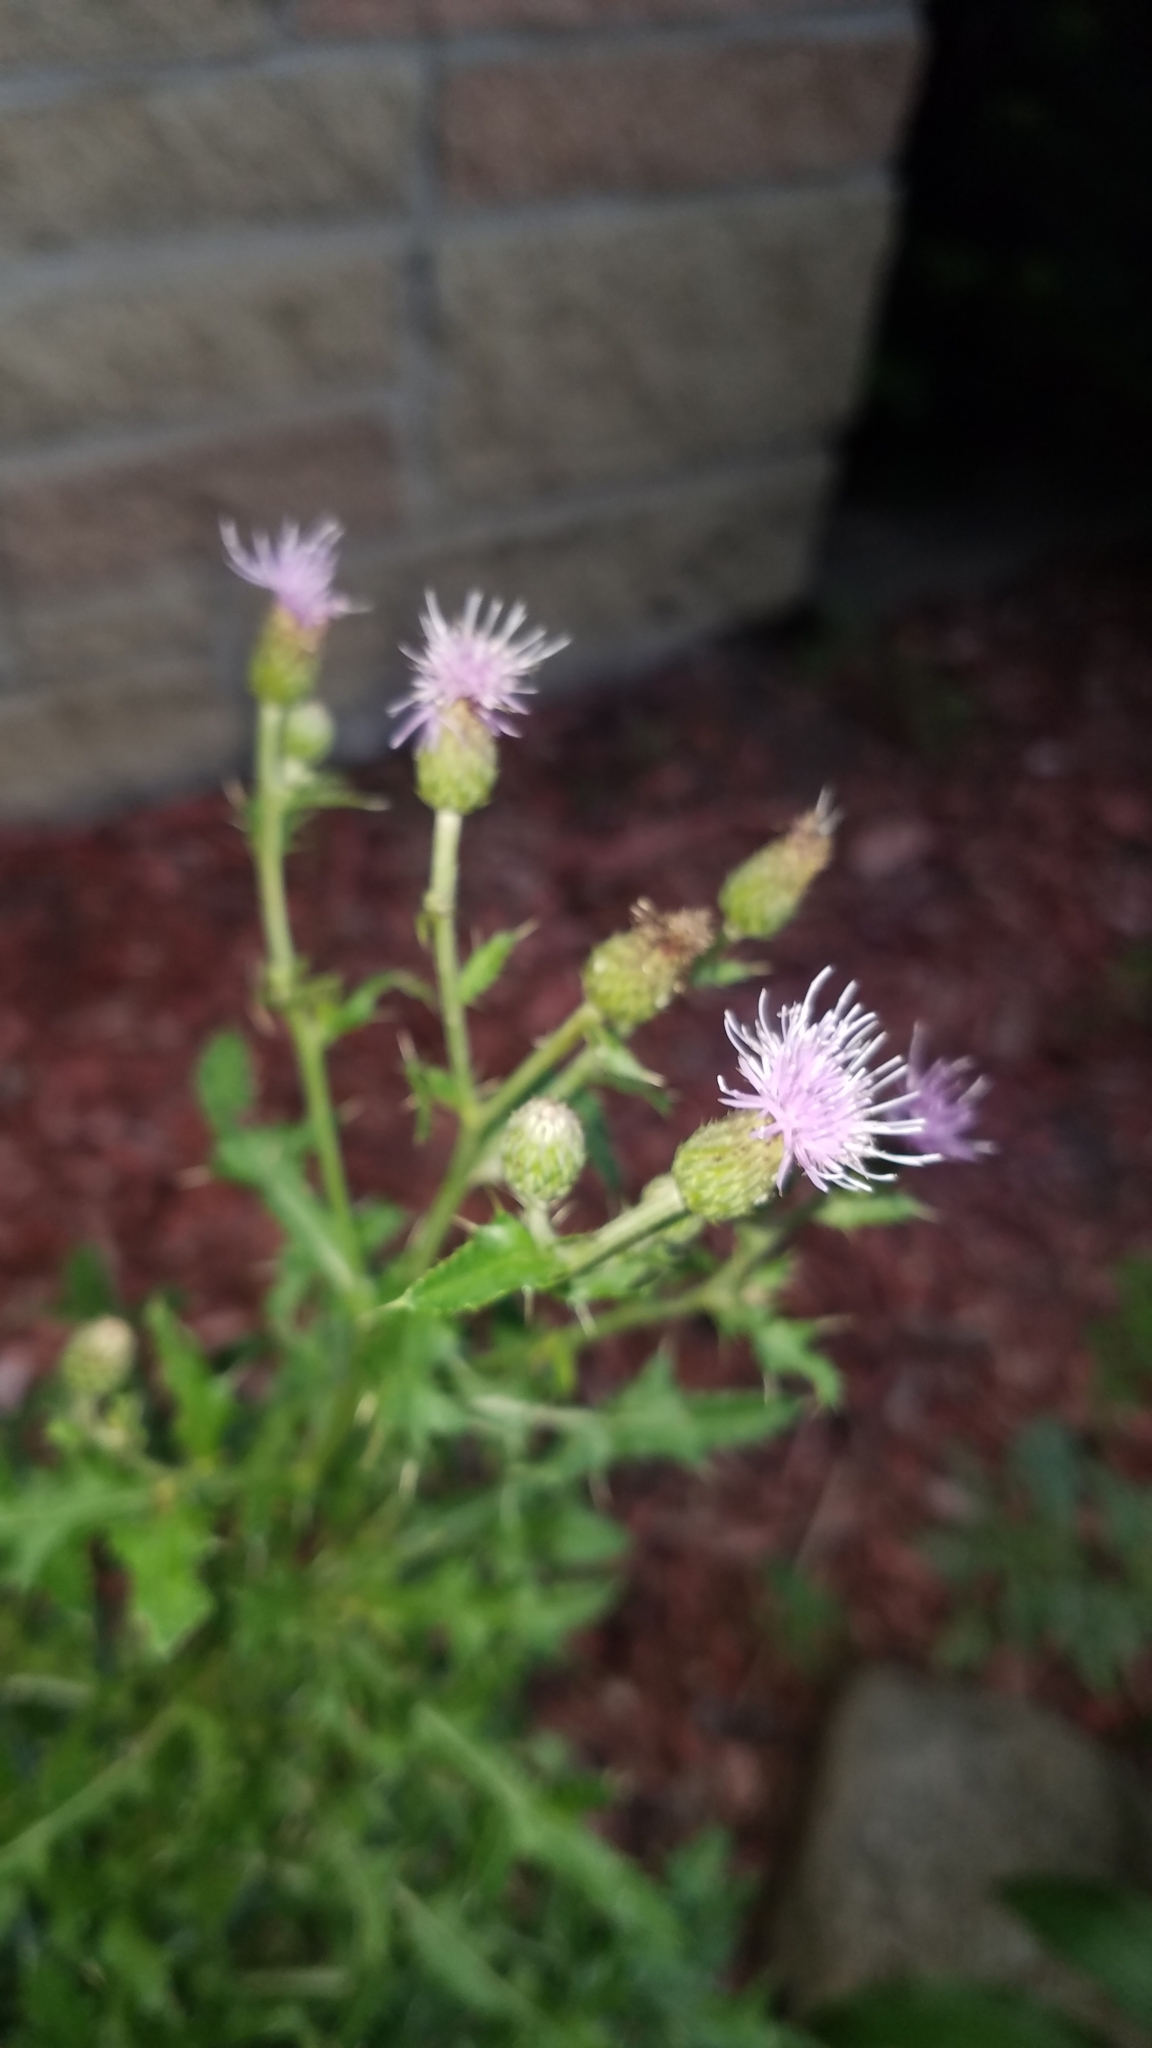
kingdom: Plantae
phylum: Tracheophyta
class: Magnoliopsida
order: Asterales
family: Asteraceae
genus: Cirsium
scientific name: Cirsium arvense
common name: Creeping thistle
